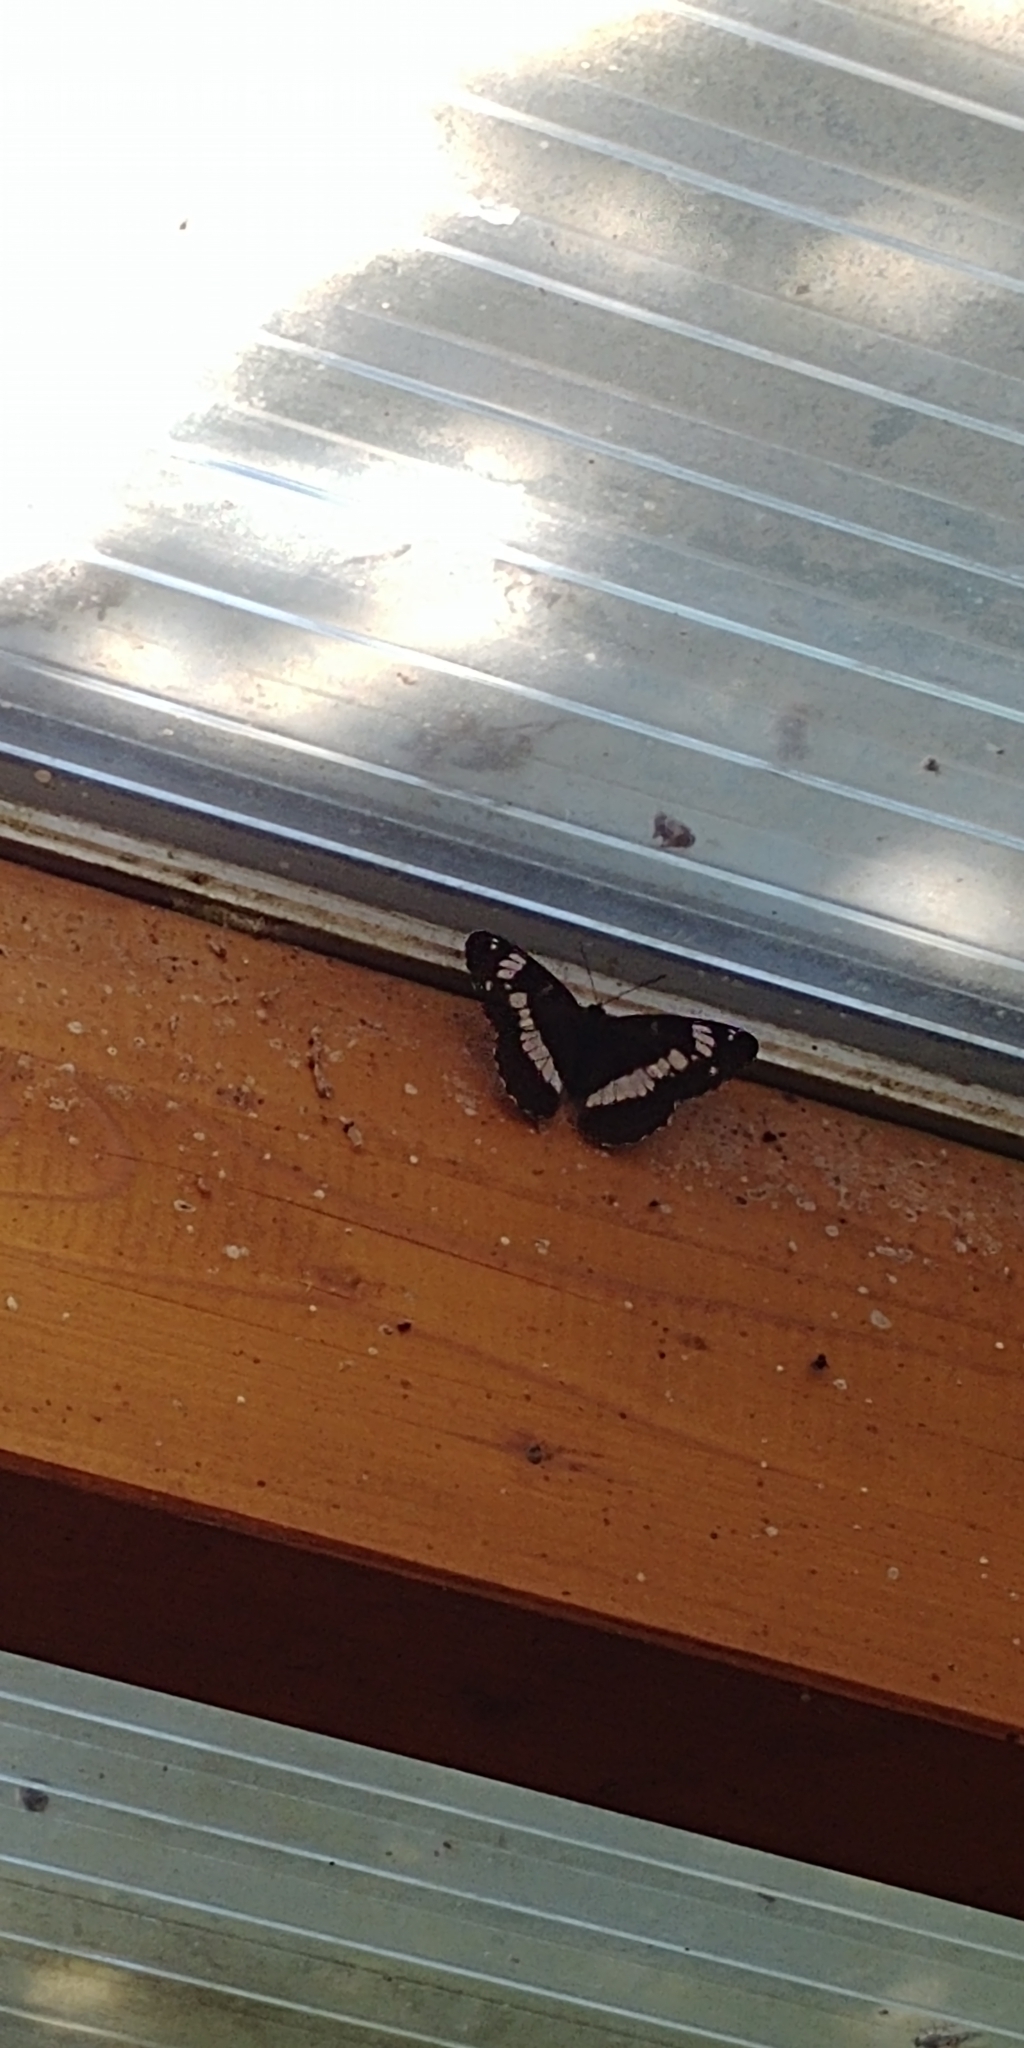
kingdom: Animalia
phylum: Arthropoda
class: Insecta
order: Lepidoptera
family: Nymphalidae
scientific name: Nymphalidae
